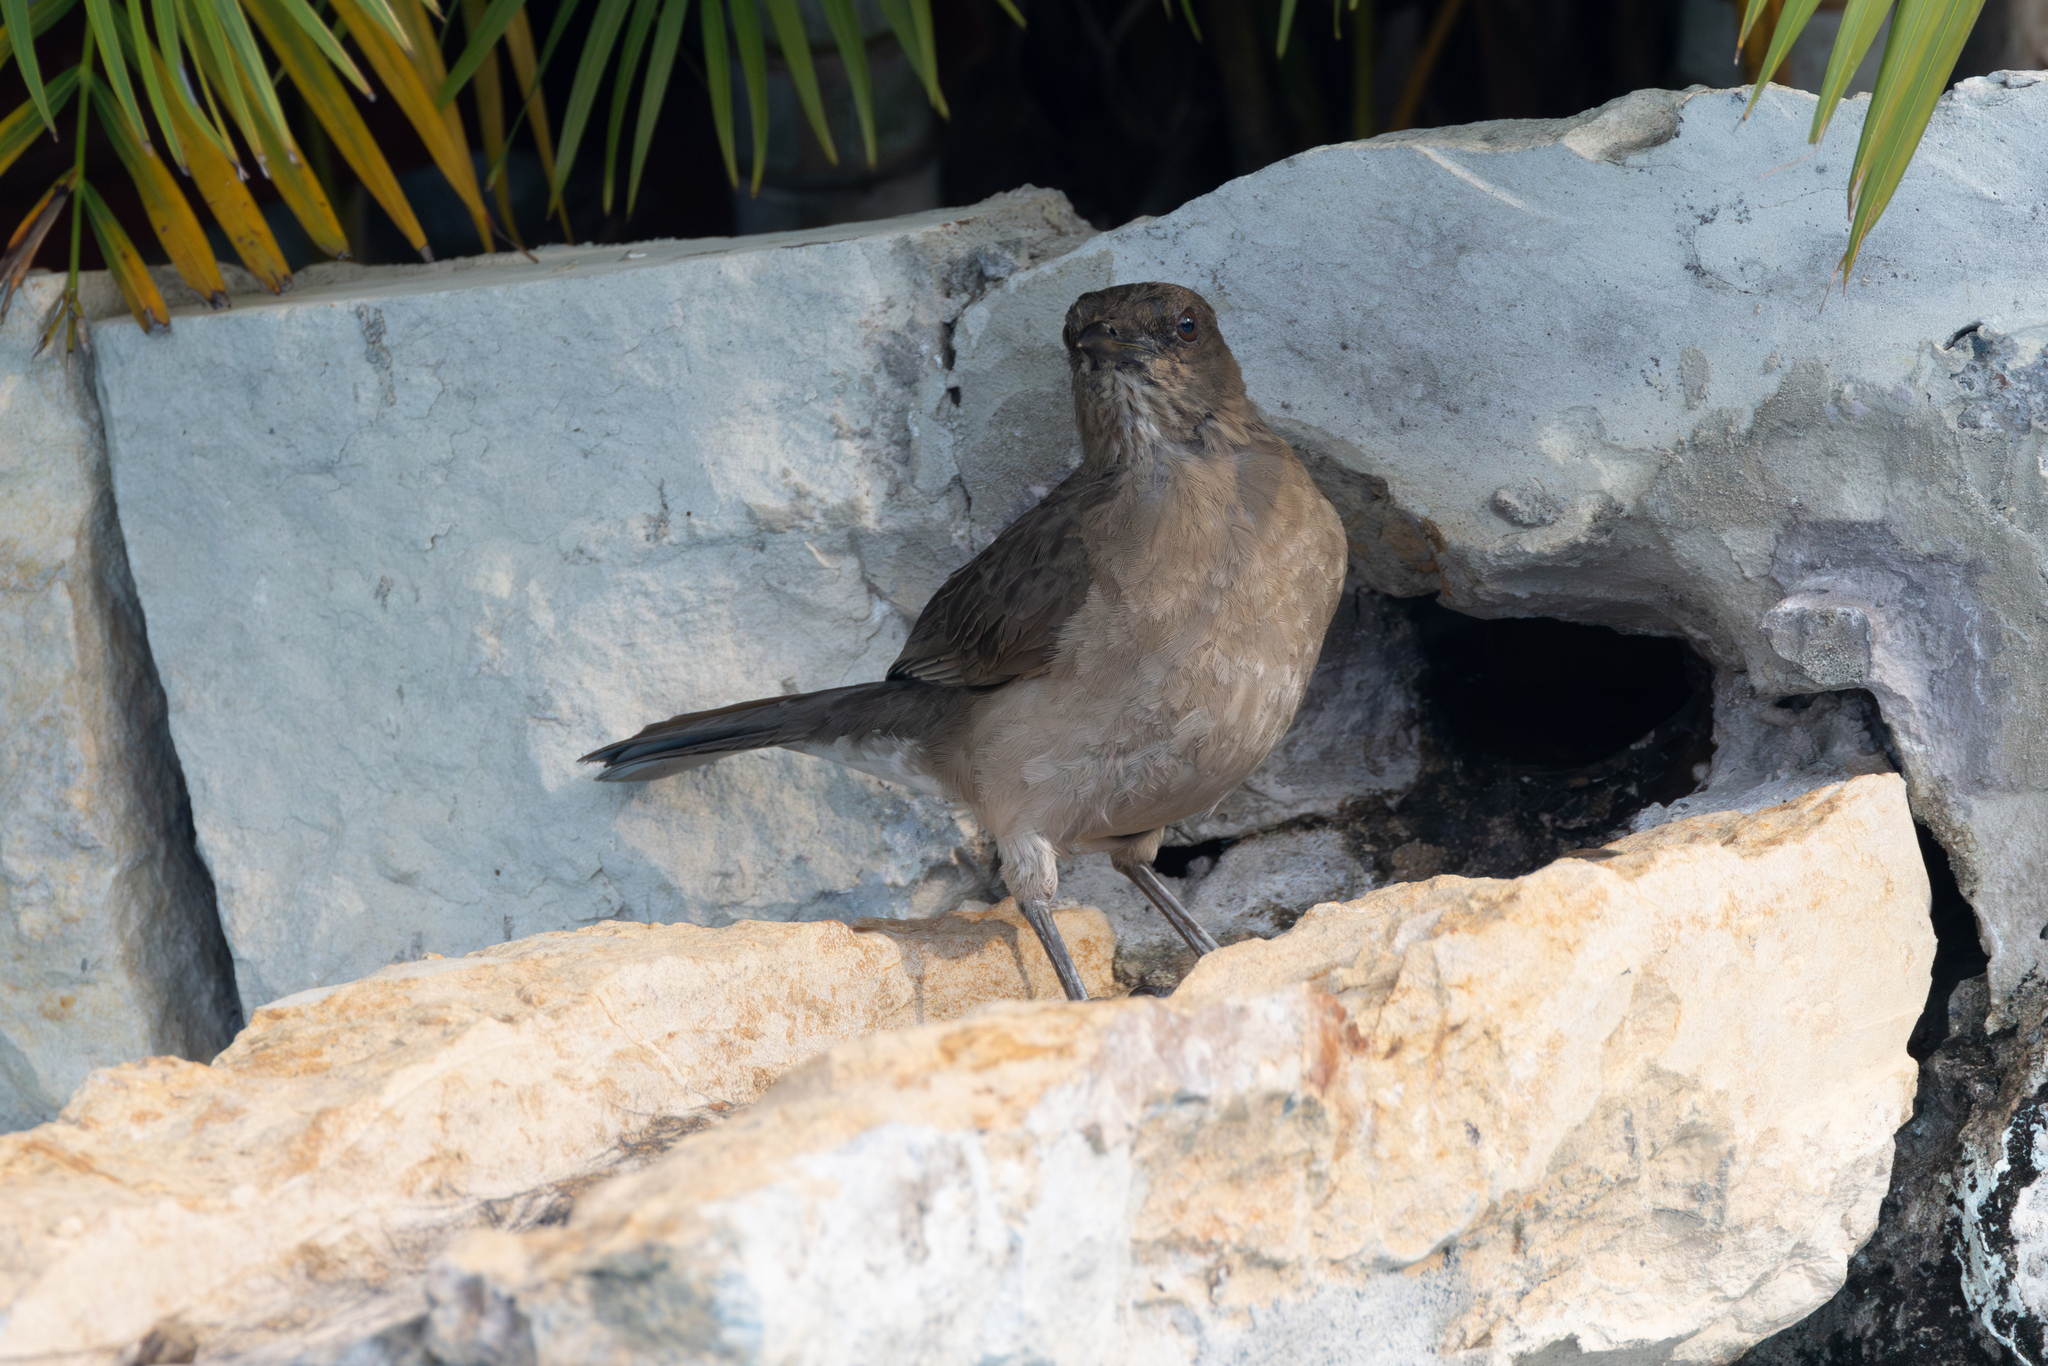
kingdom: Animalia
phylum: Chordata
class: Aves
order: Passeriformes
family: Turdidae
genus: Turdus
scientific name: Turdus ignobilis
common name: Black-billed thrush
